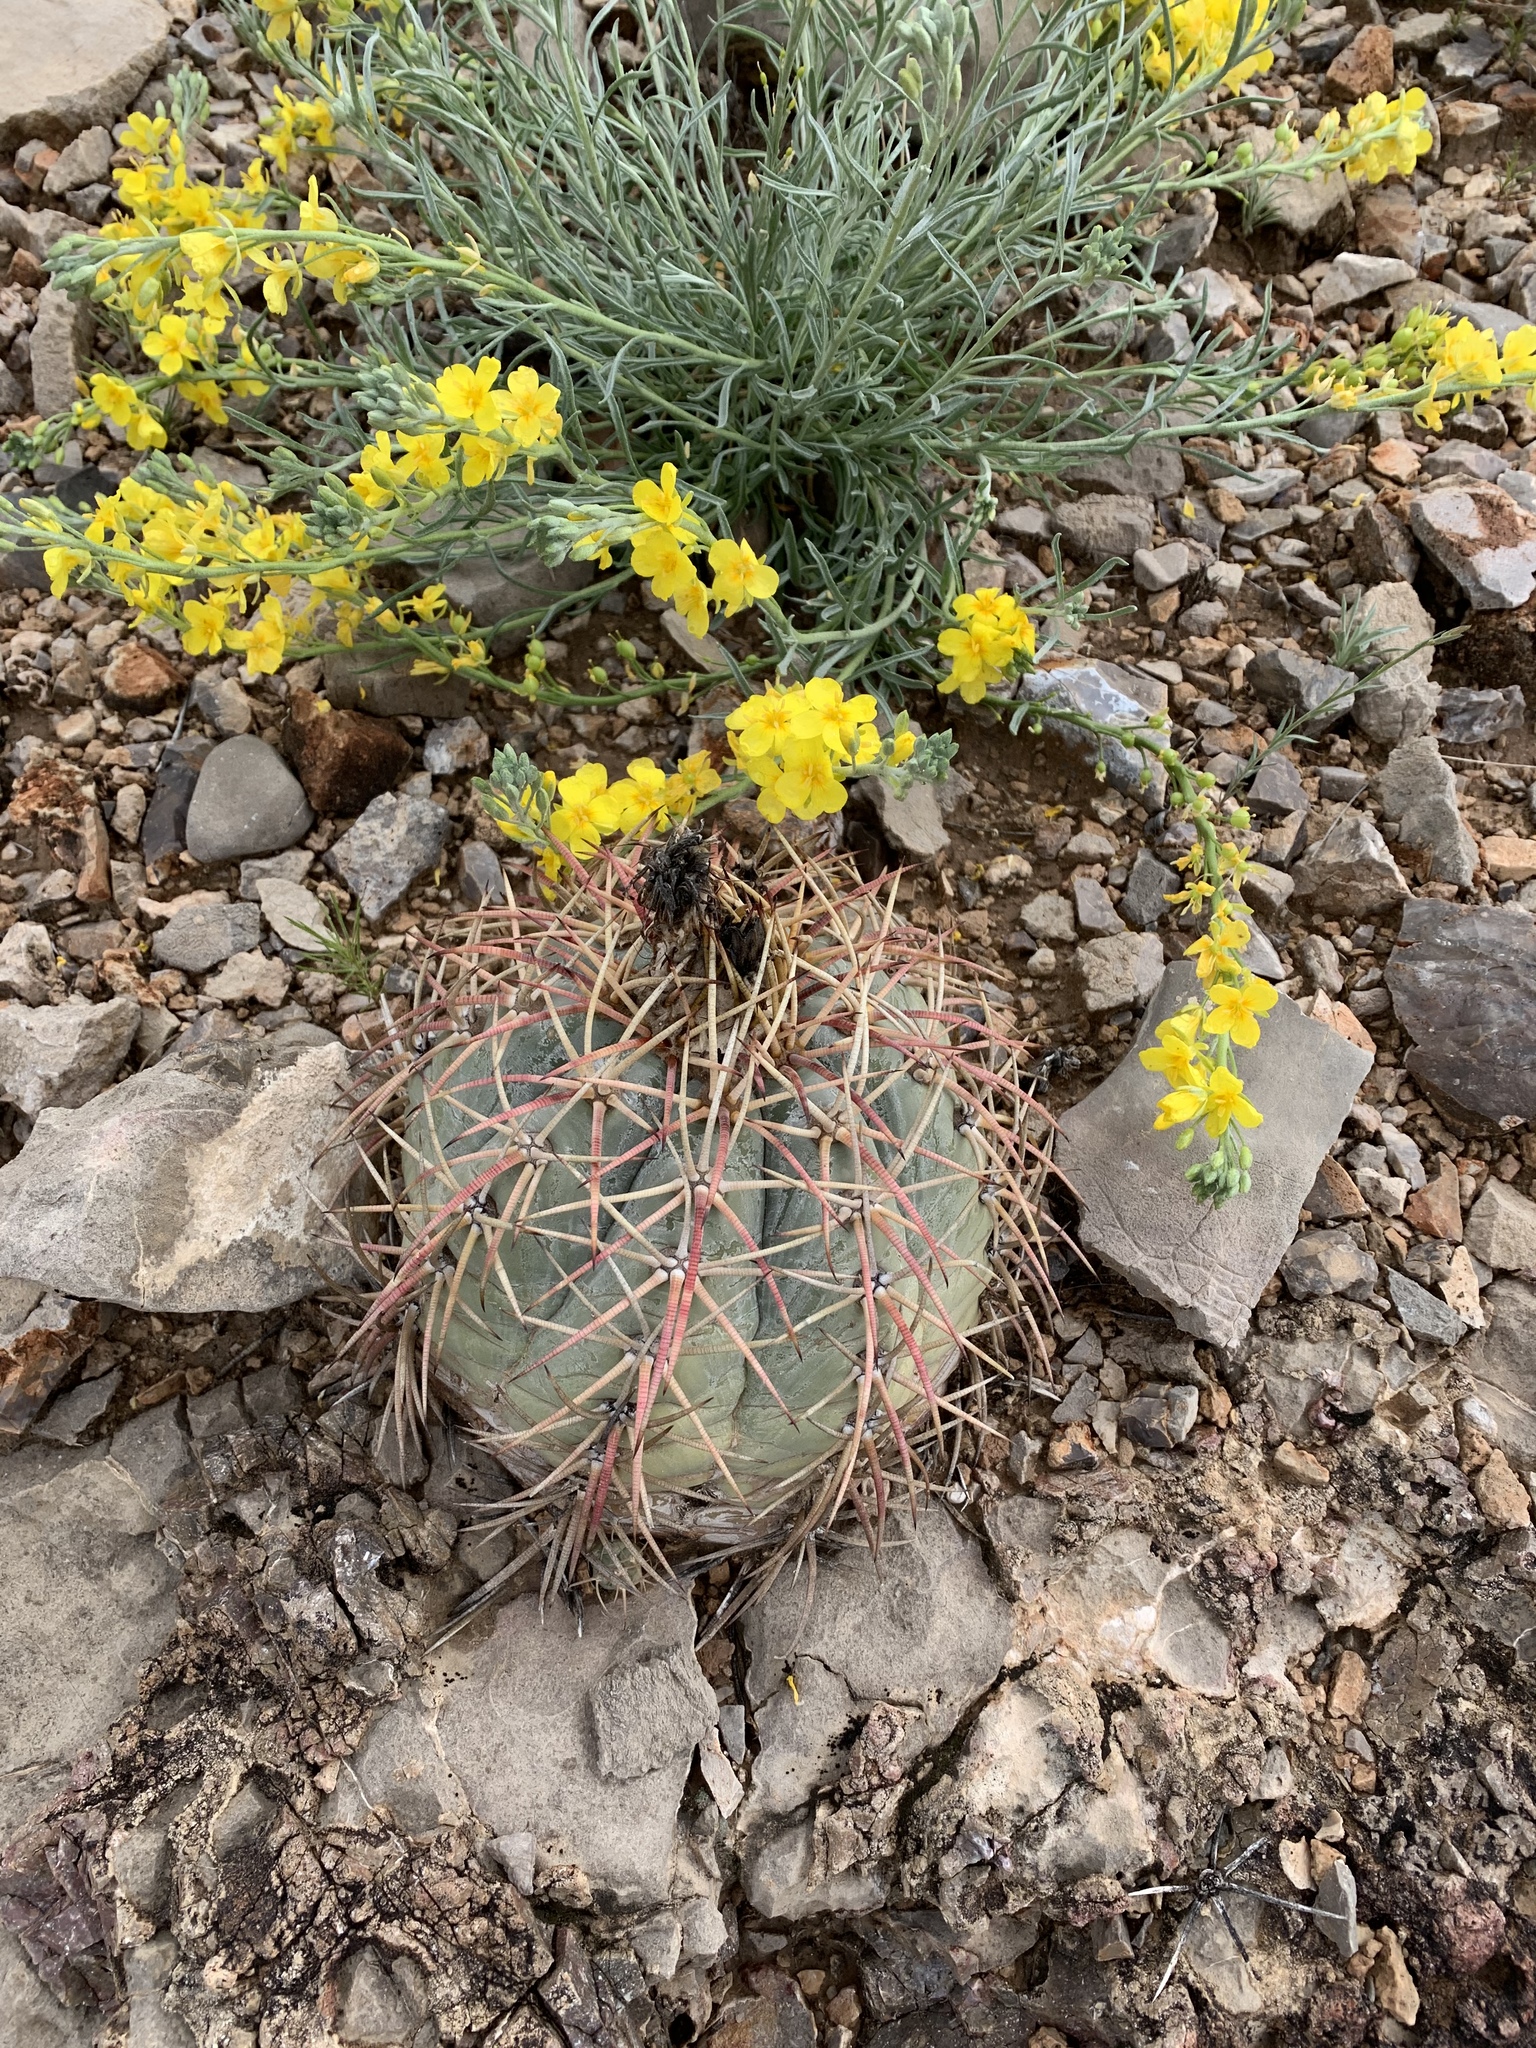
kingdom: Plantae
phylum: Tracheophyta
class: Magnoliopsida
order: Caryophyllales
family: Cactaceae
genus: Echinocactus
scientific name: Echinocactus horizonthalonius
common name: Devilshead
